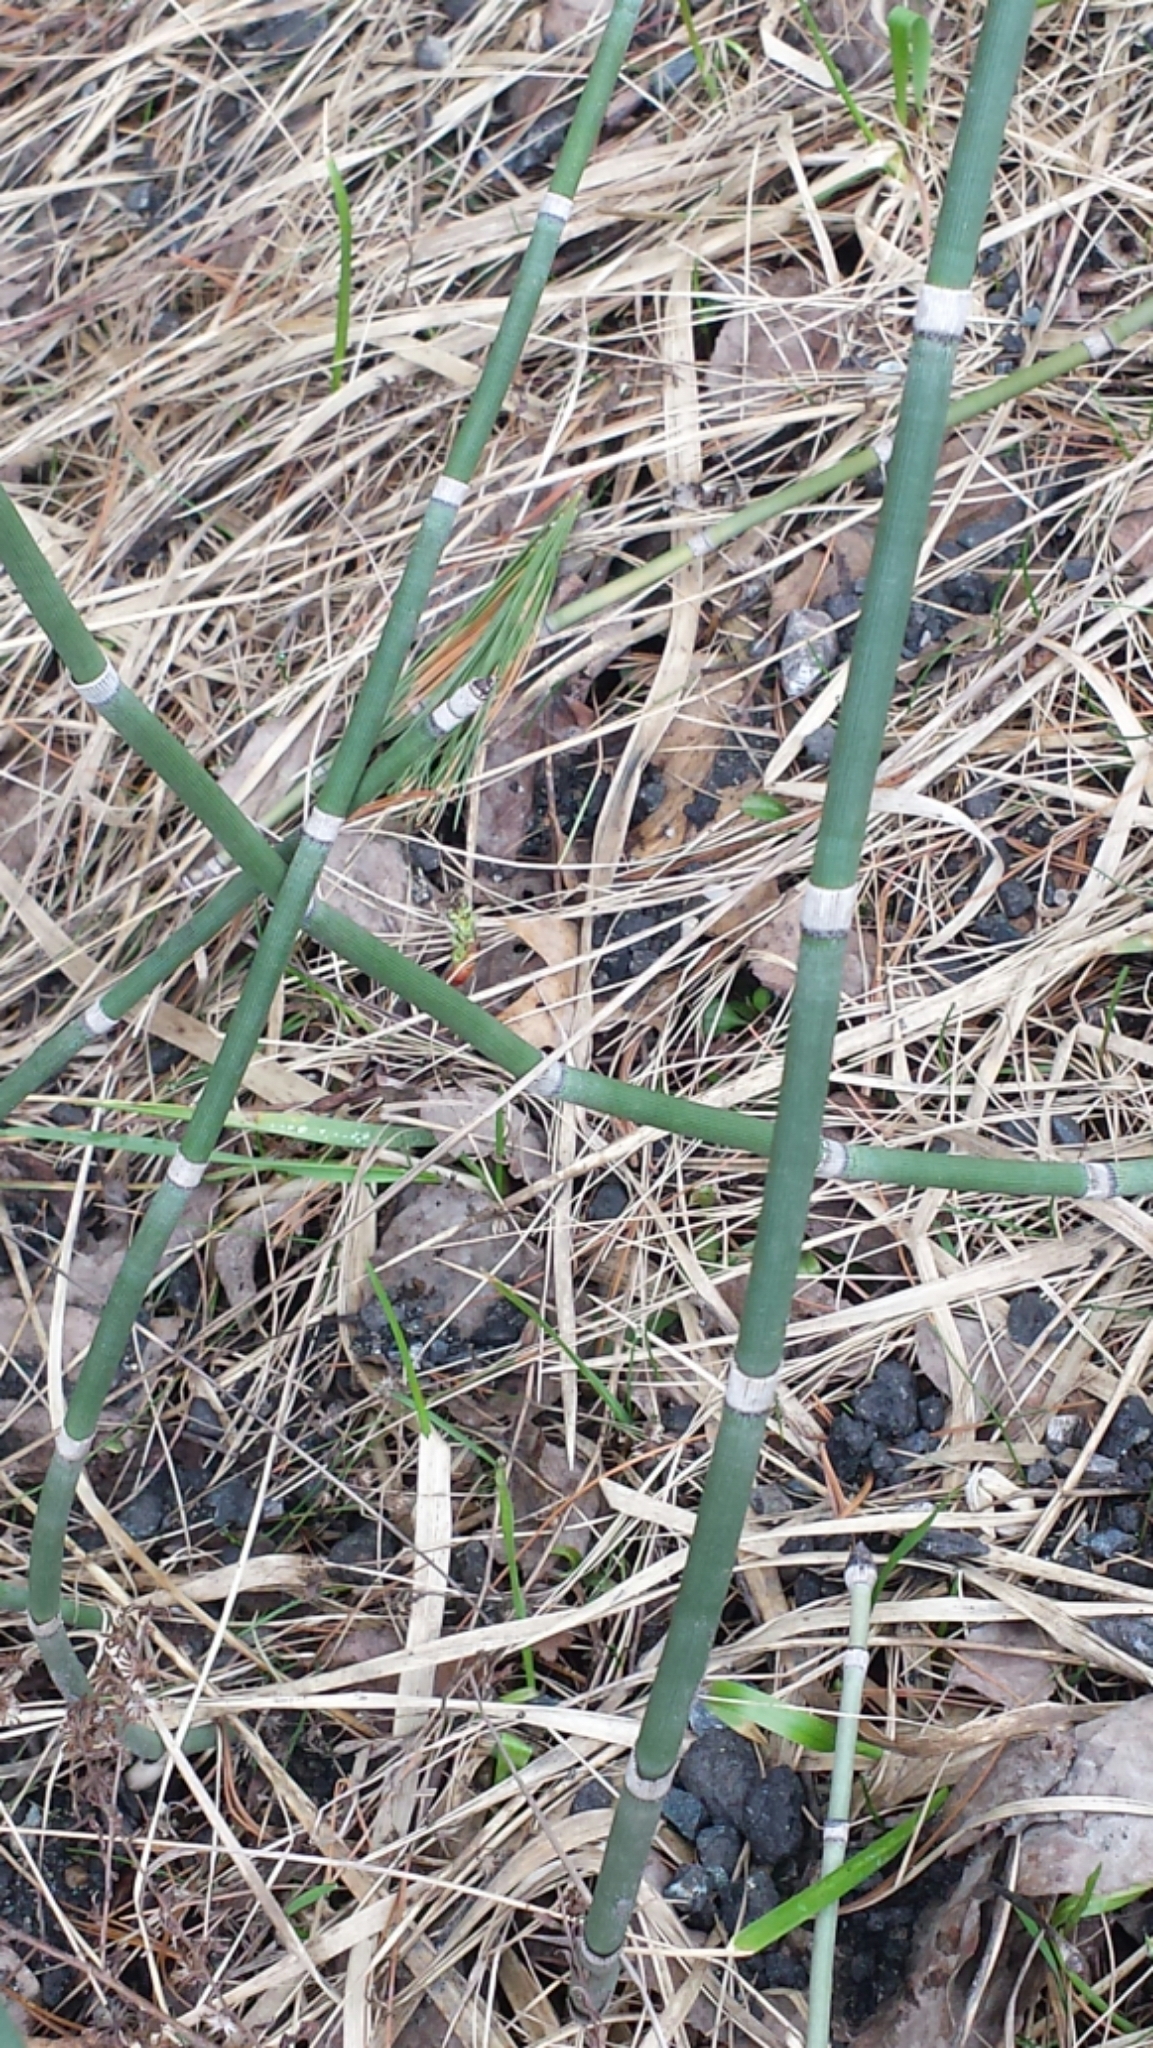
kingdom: Plantae
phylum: Tracheophyta
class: Polypodiopsida
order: Equisetales
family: Equisetaceae
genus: Equisetum
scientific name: Equisetum hyemale
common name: Rough horsetail
